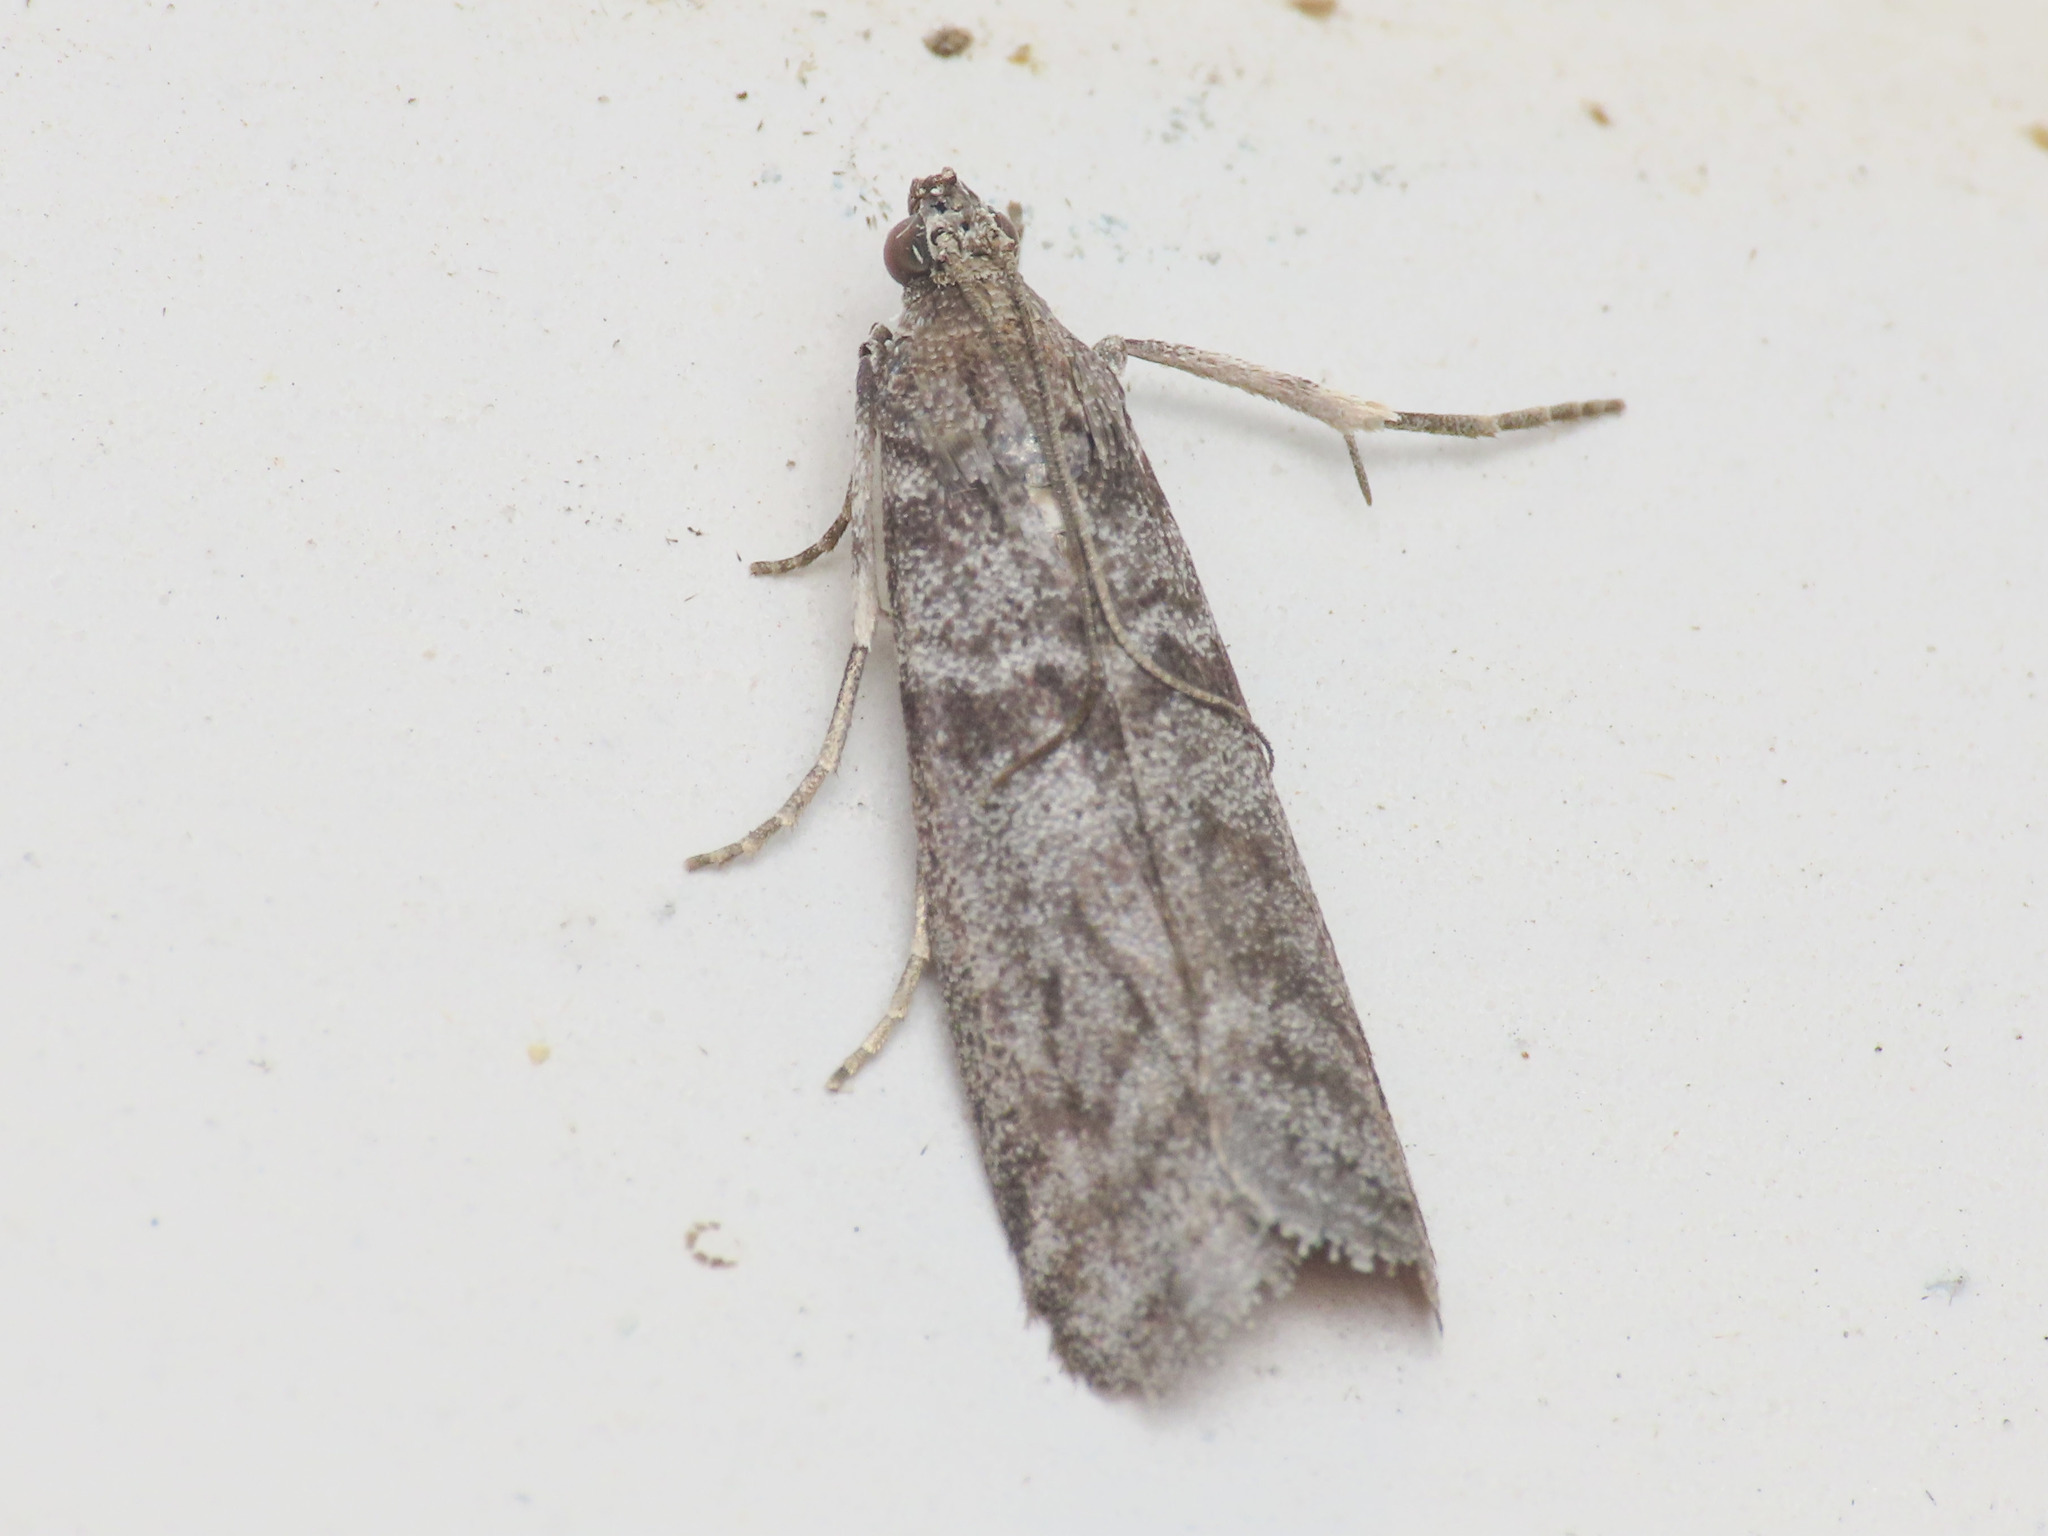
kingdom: Animalia
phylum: Arthropoda
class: Insecta
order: Lepidoptera
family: Pyralidae
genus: Ectomyelois
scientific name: Ectomyelois ceratoniae
